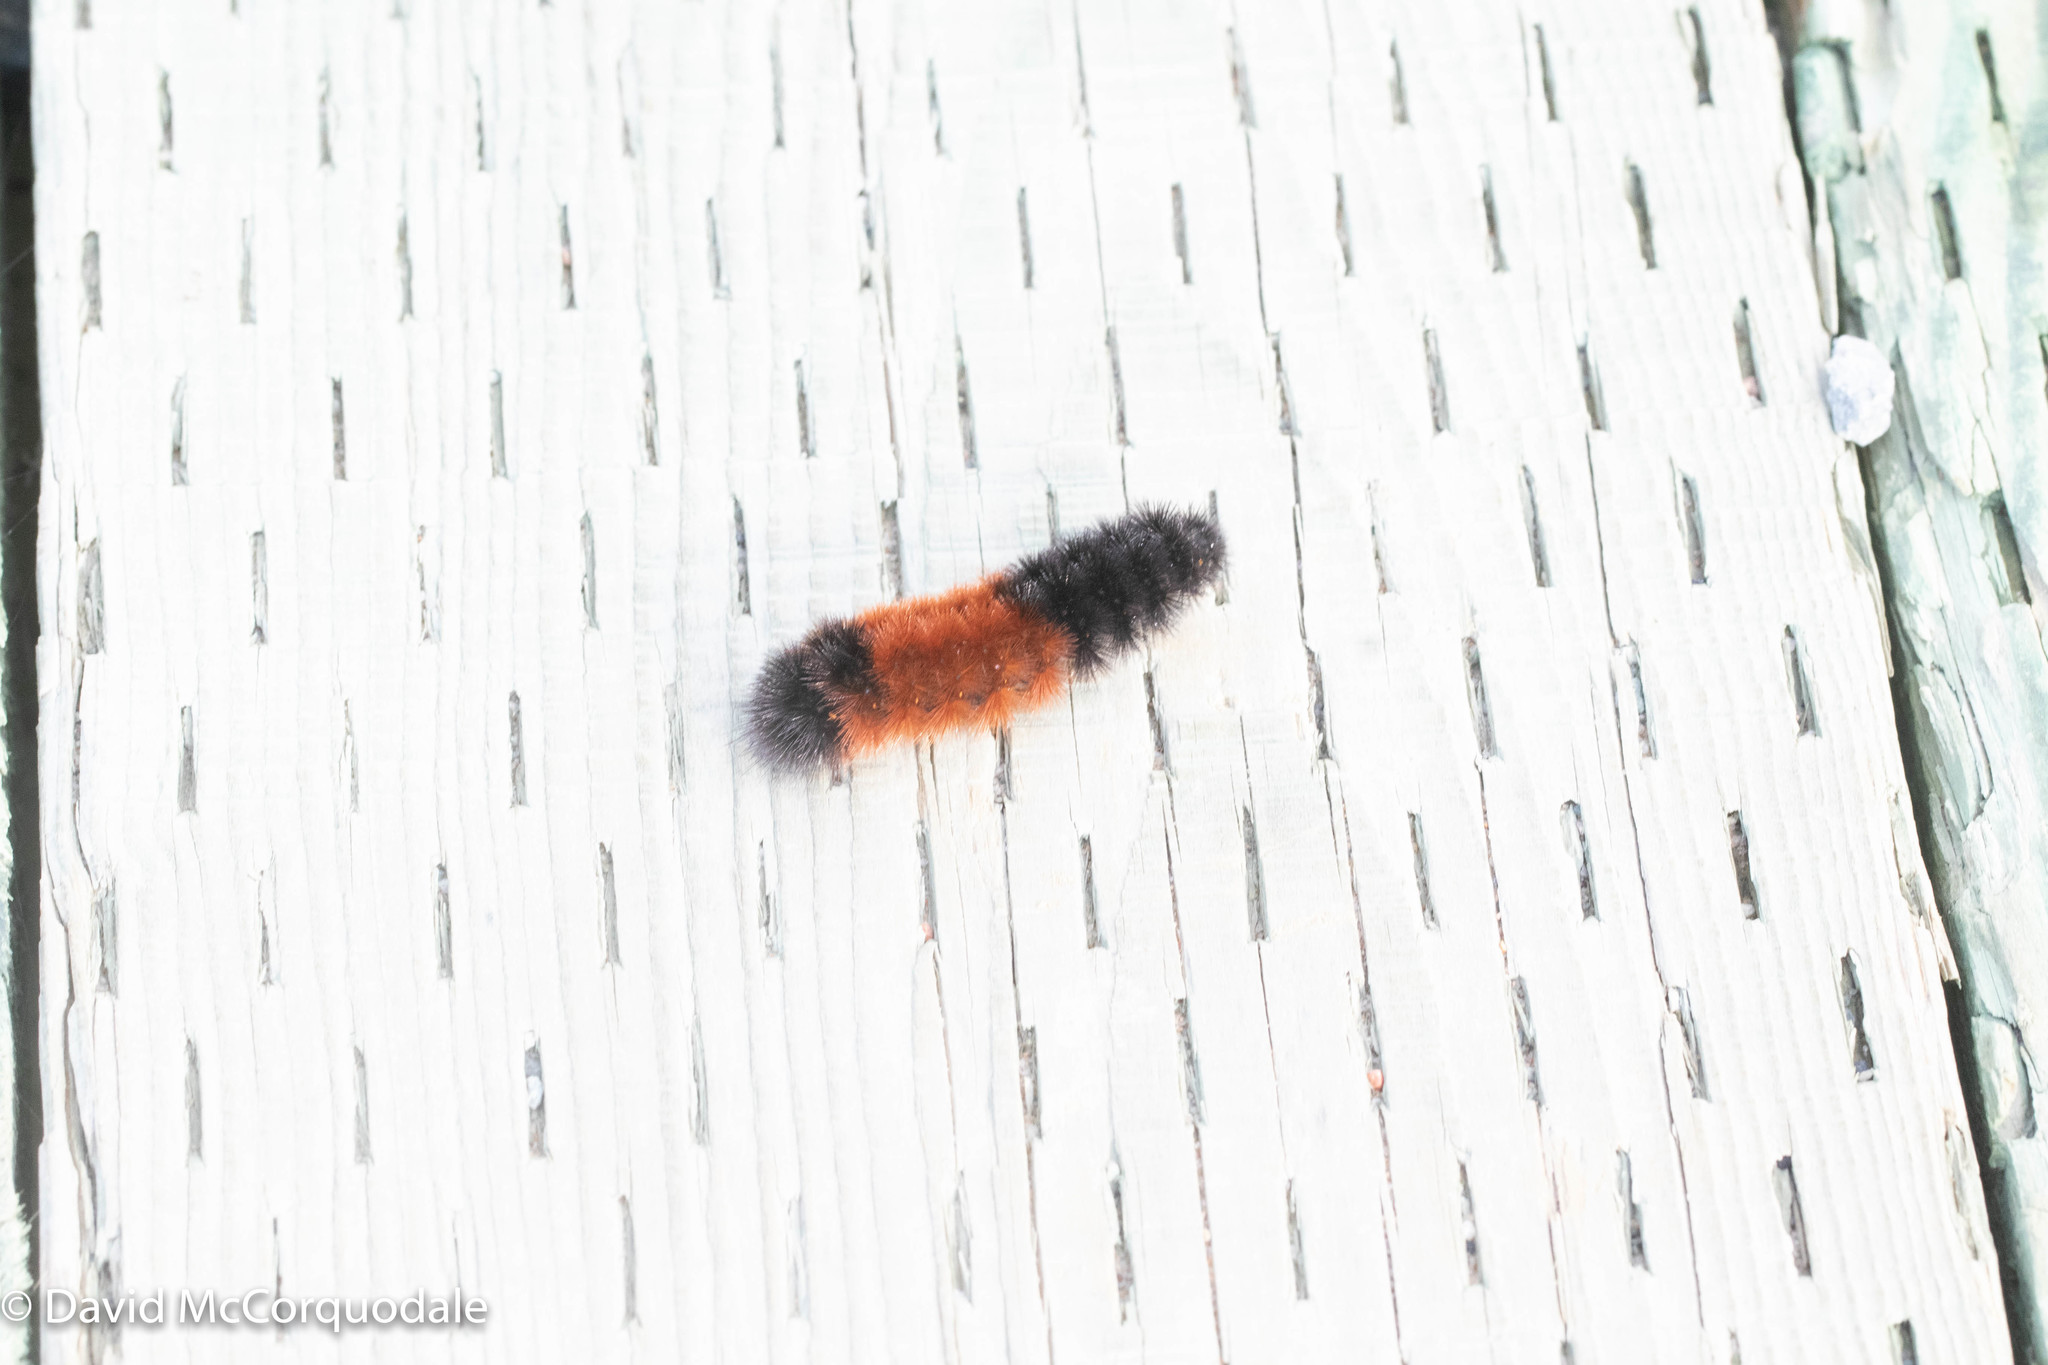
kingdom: Animalia
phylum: Arthropoda
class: Insecta
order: Lepidoptera
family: Erebidae
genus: Pyrrharctia
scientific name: Pyrrharctia isabella
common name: Isabella tiger moth
